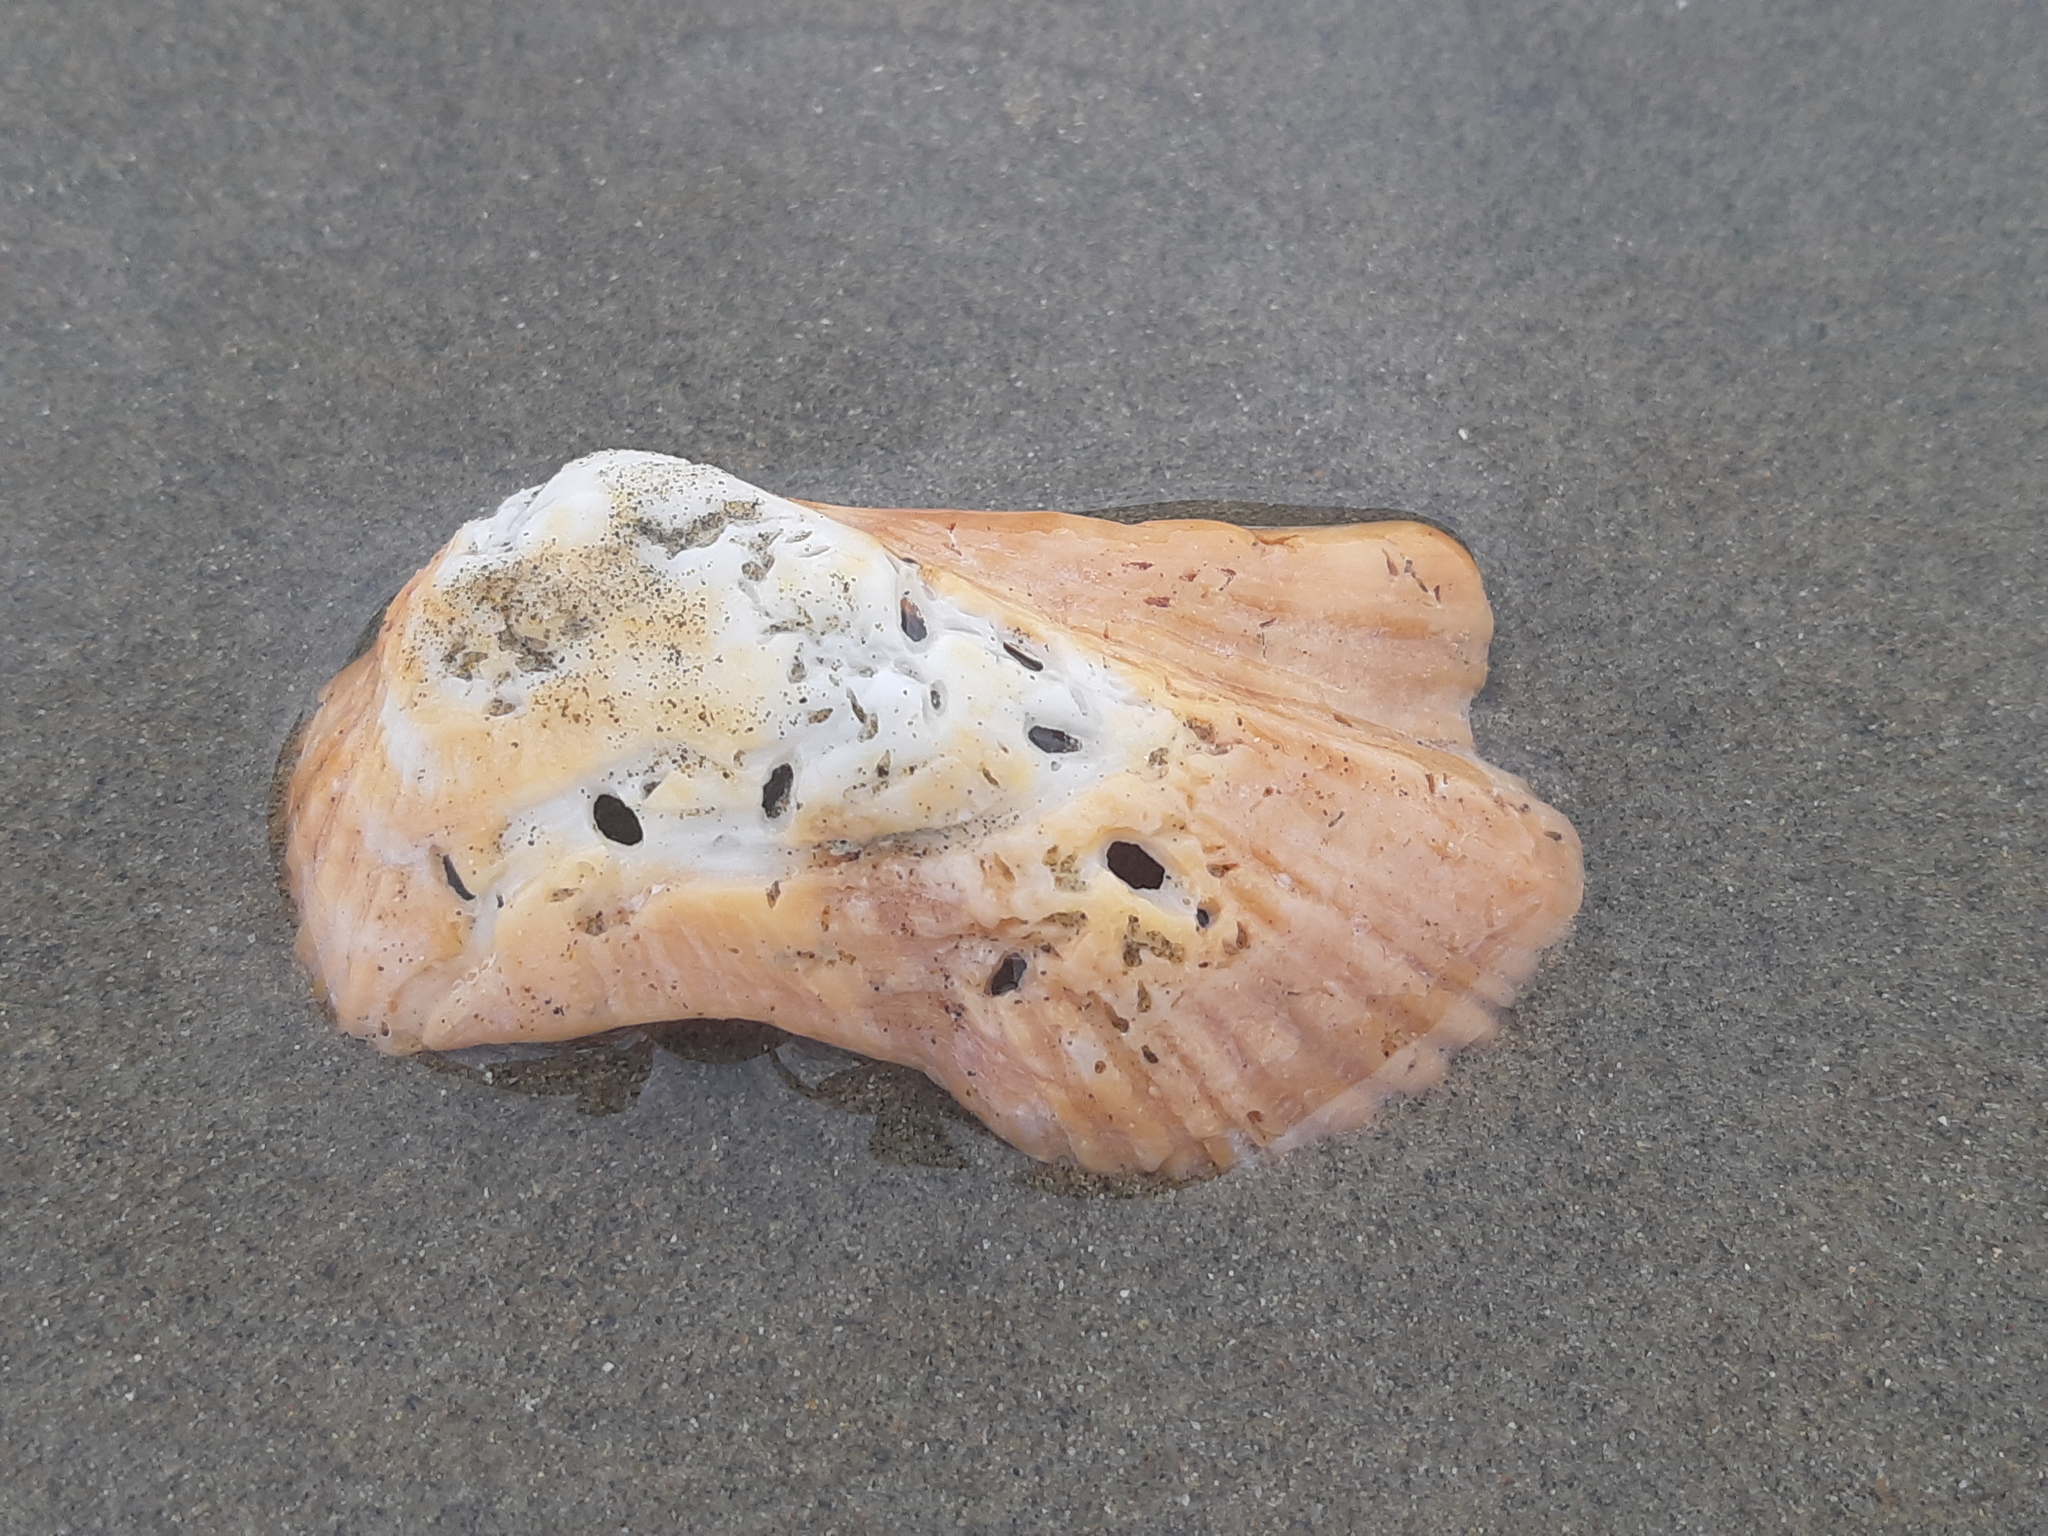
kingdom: Animalia
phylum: Mollusca
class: Bivalvia
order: Arcida
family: Arcidae
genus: Arca
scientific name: Arca pacifica
